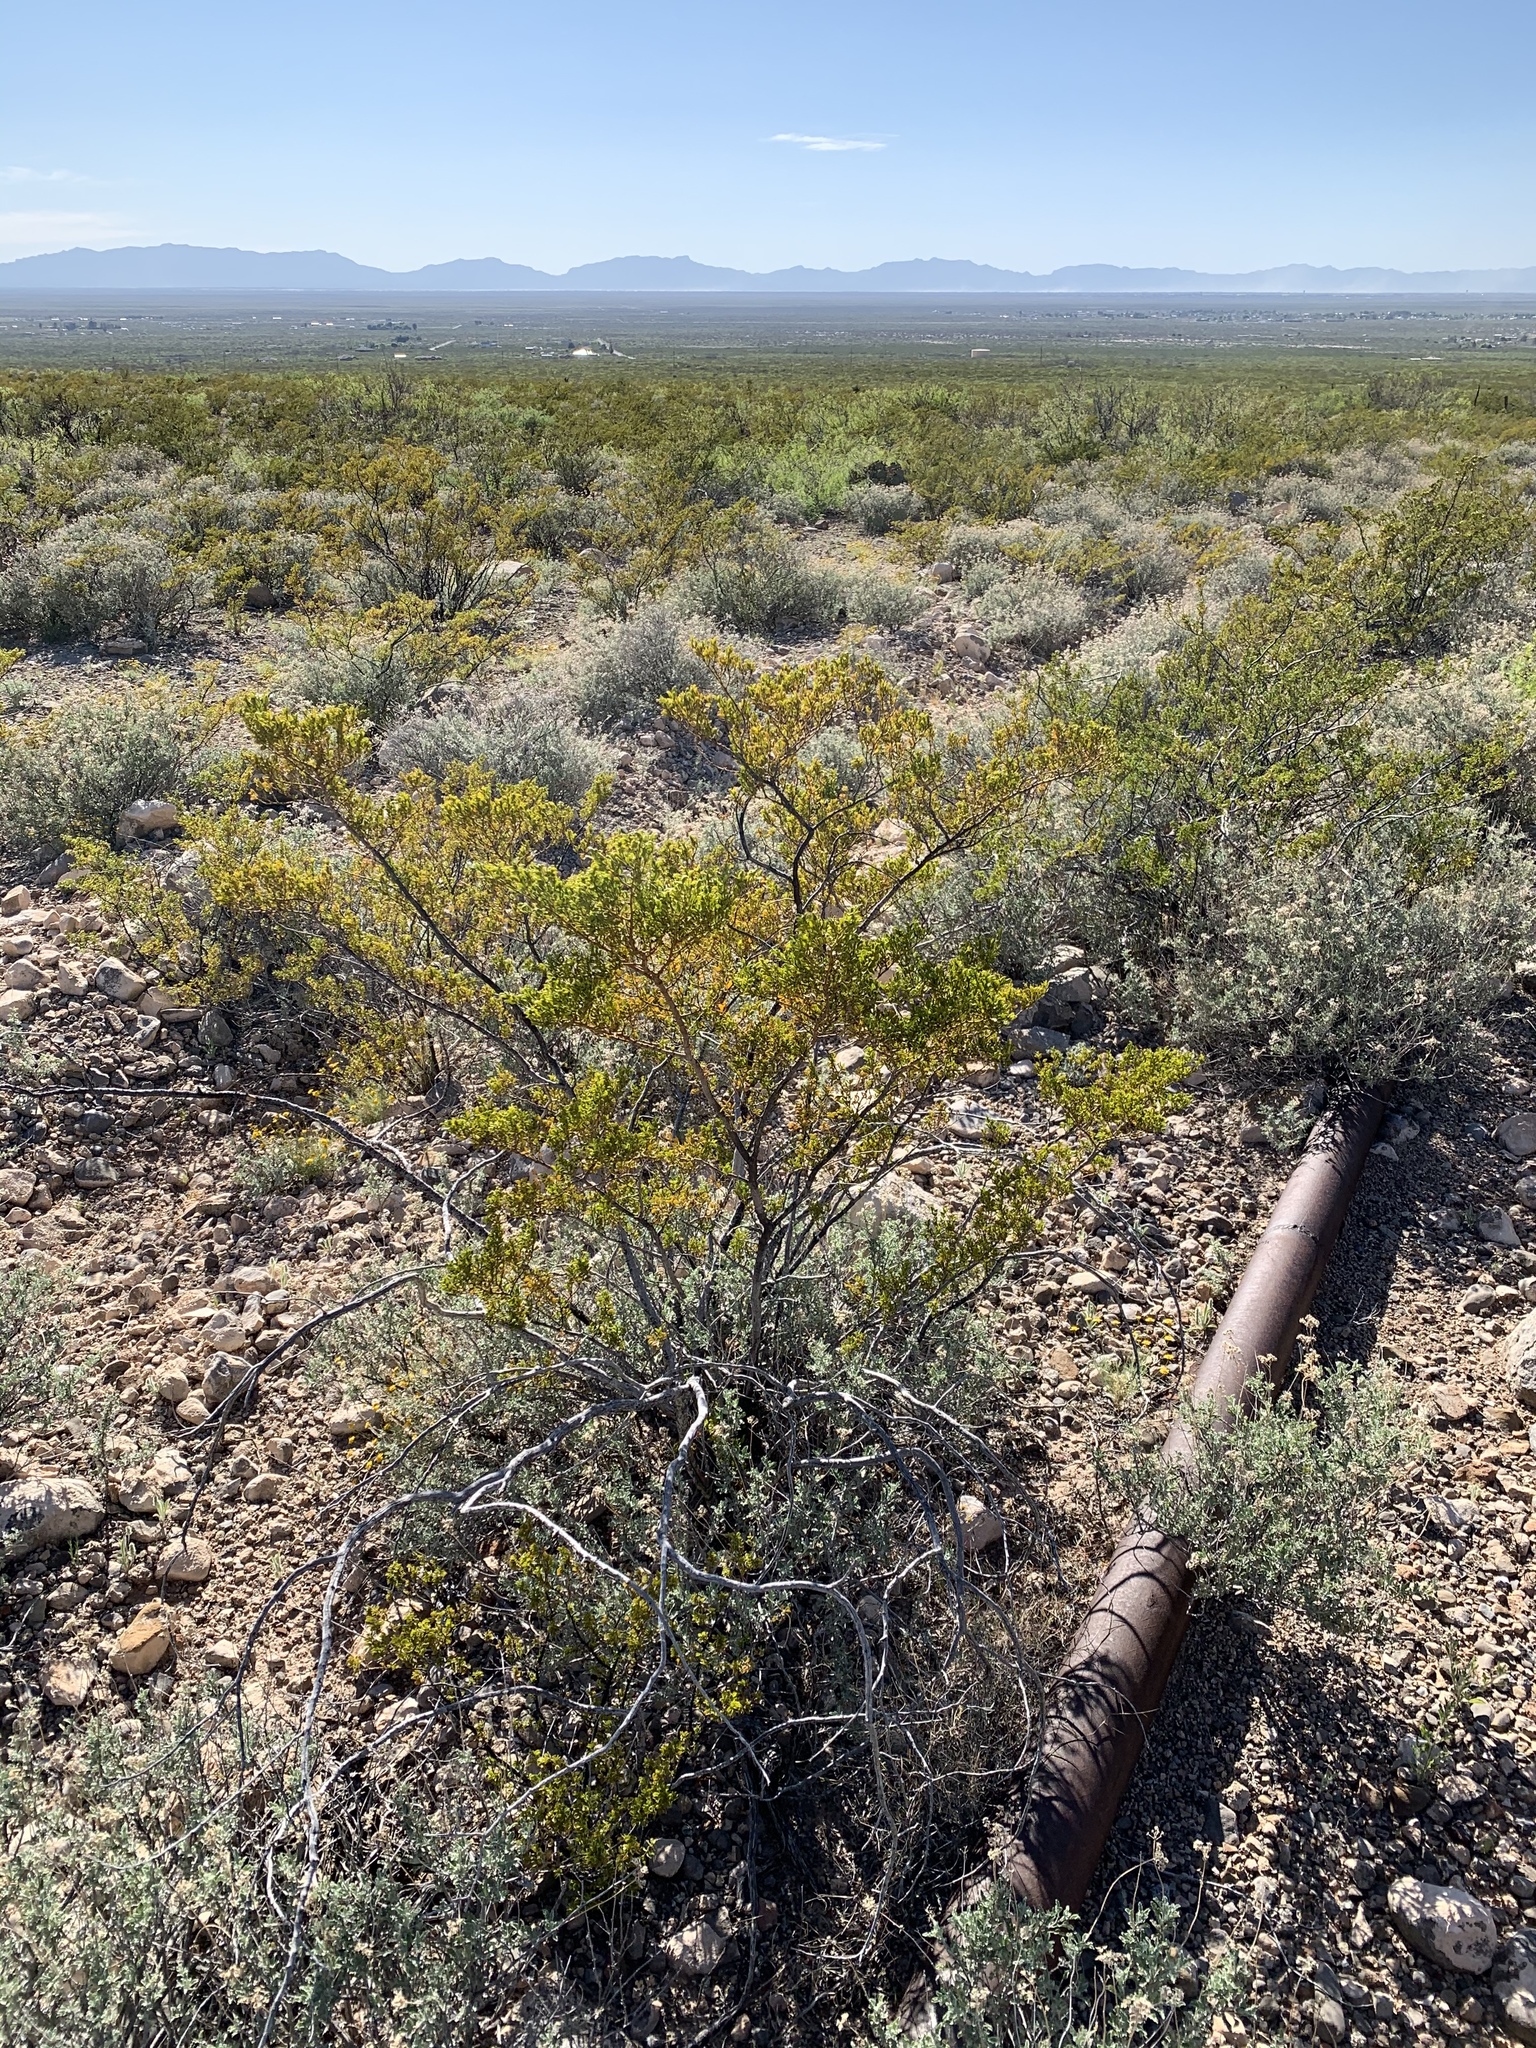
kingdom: Plantae
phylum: Tracheophyta
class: Magnoliopsida
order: Zygophyllales
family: Zygophyllaceae
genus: Larrea
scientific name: Larrea tridentata
